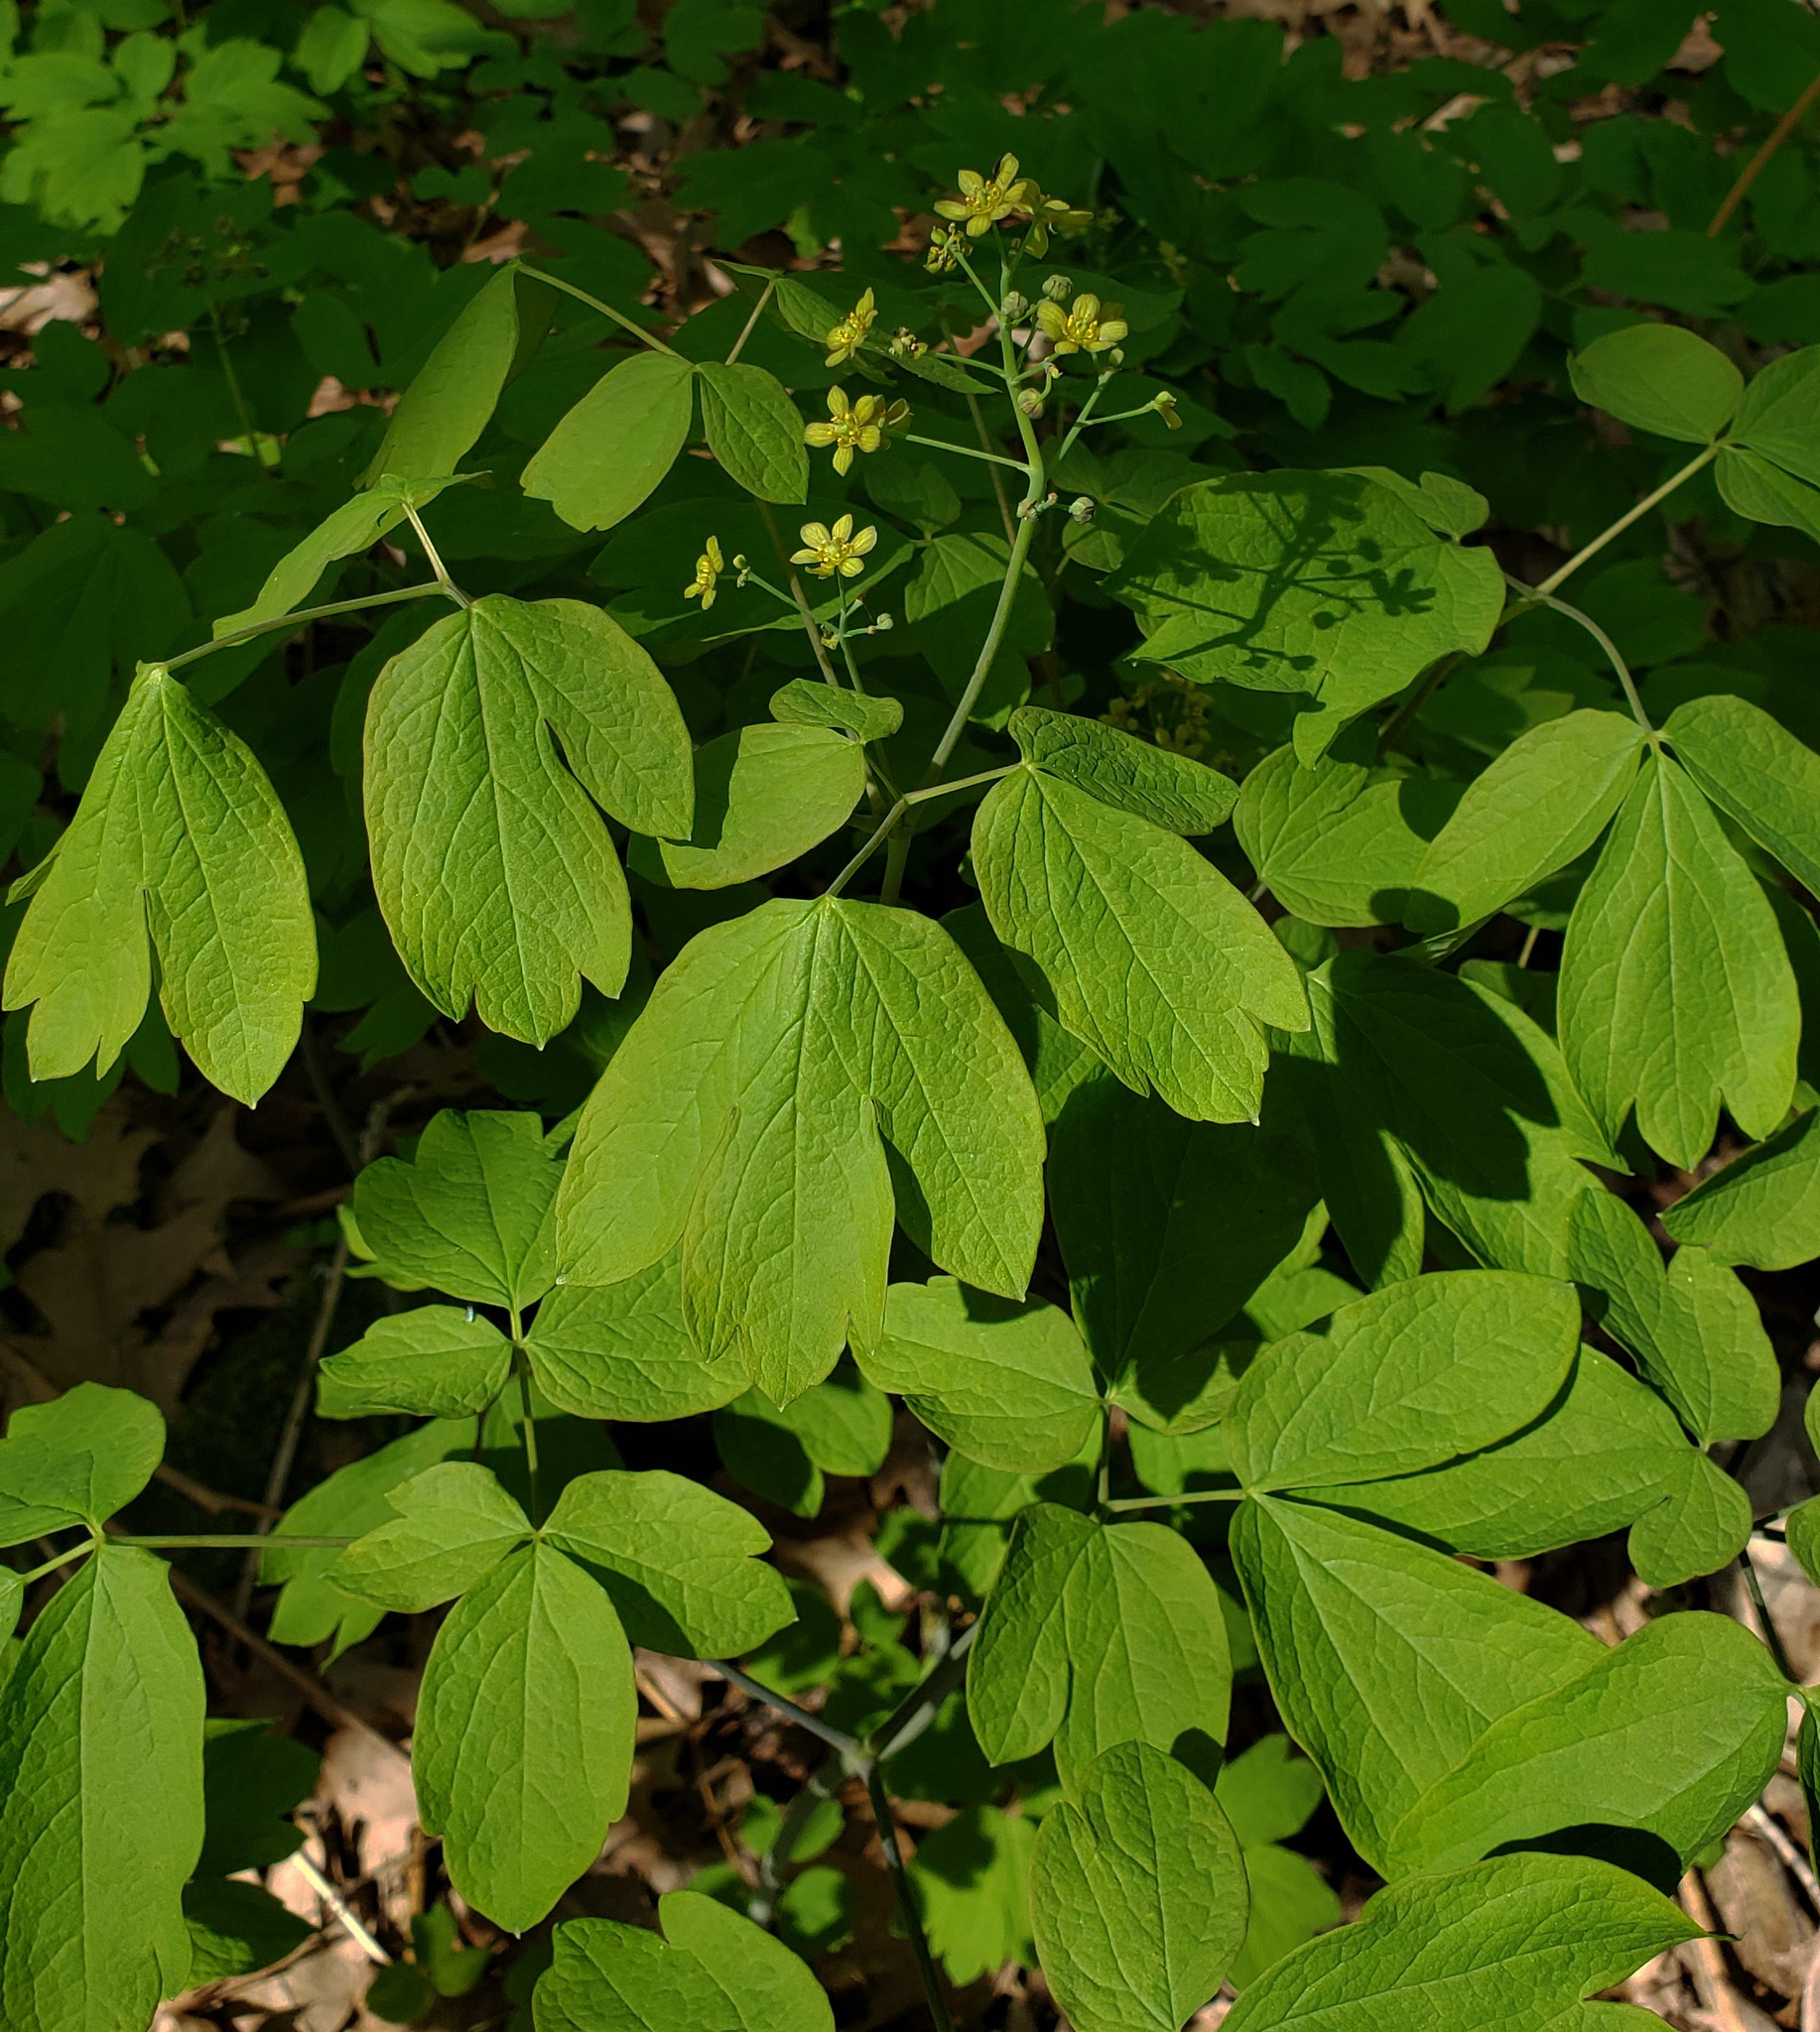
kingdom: Plantae
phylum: Tracheophyta
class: Magnoliopsida
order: Ranunculales
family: Berberidaceae
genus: Caulophyllum
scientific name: Caulophyllum thalictroides
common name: Blue cohosh
